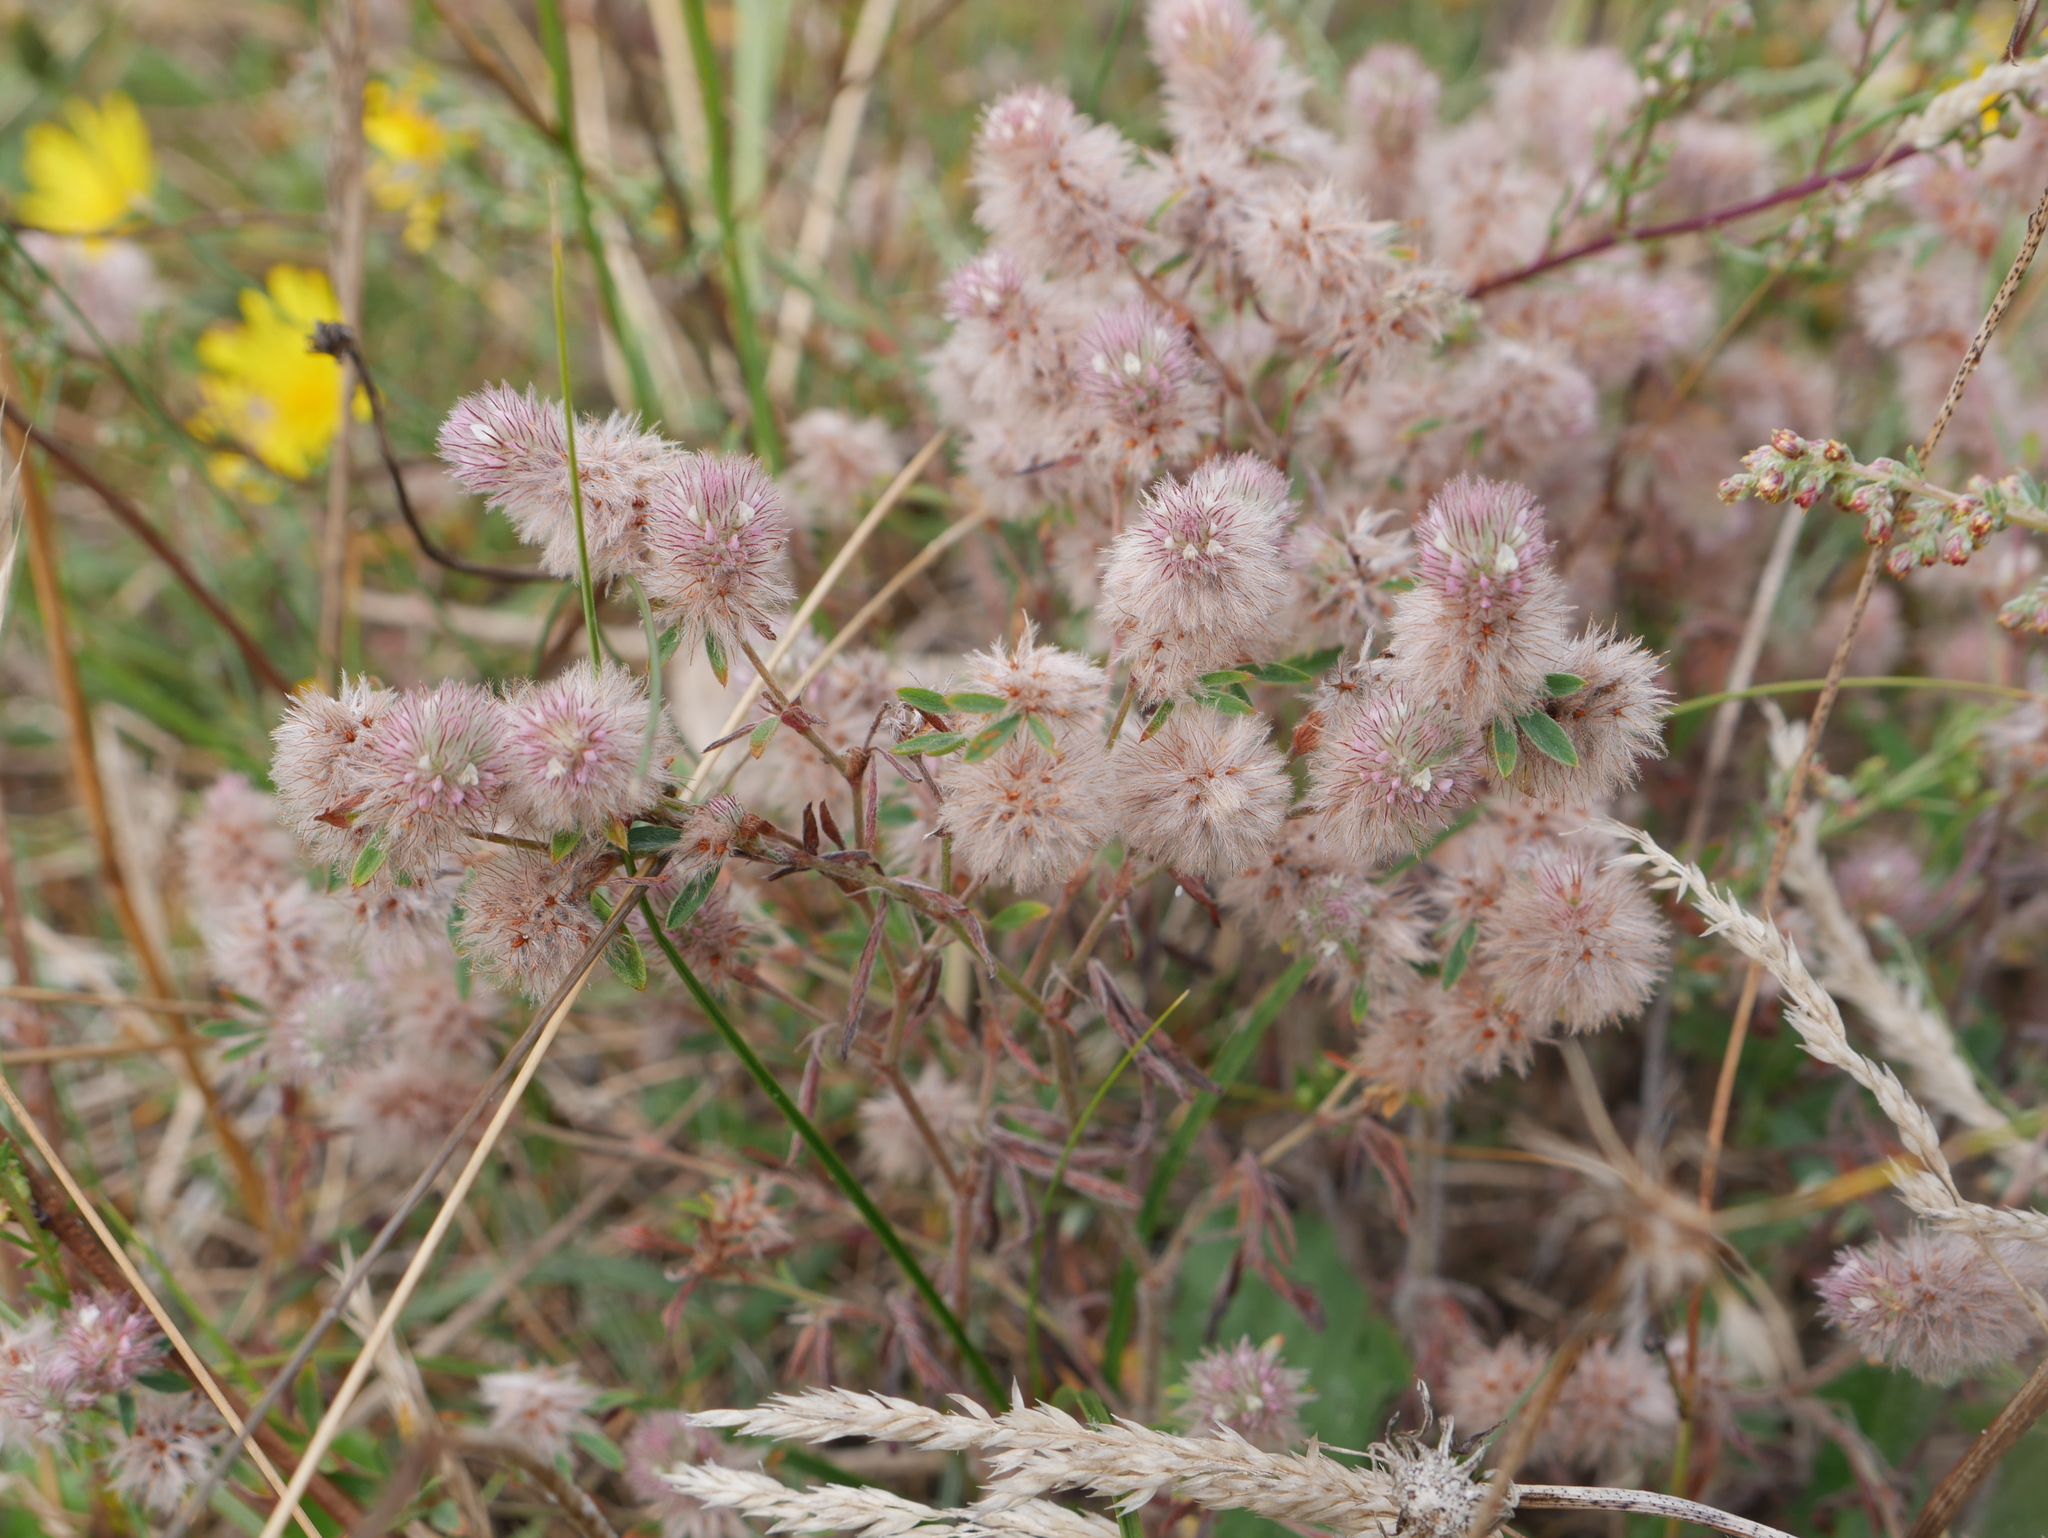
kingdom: Plantae
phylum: Tracheophyta
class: Magnoliopsida
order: Fabales
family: Fabaceae
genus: Trifolium
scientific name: Trifolium arvense
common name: Hare's-foot clover
